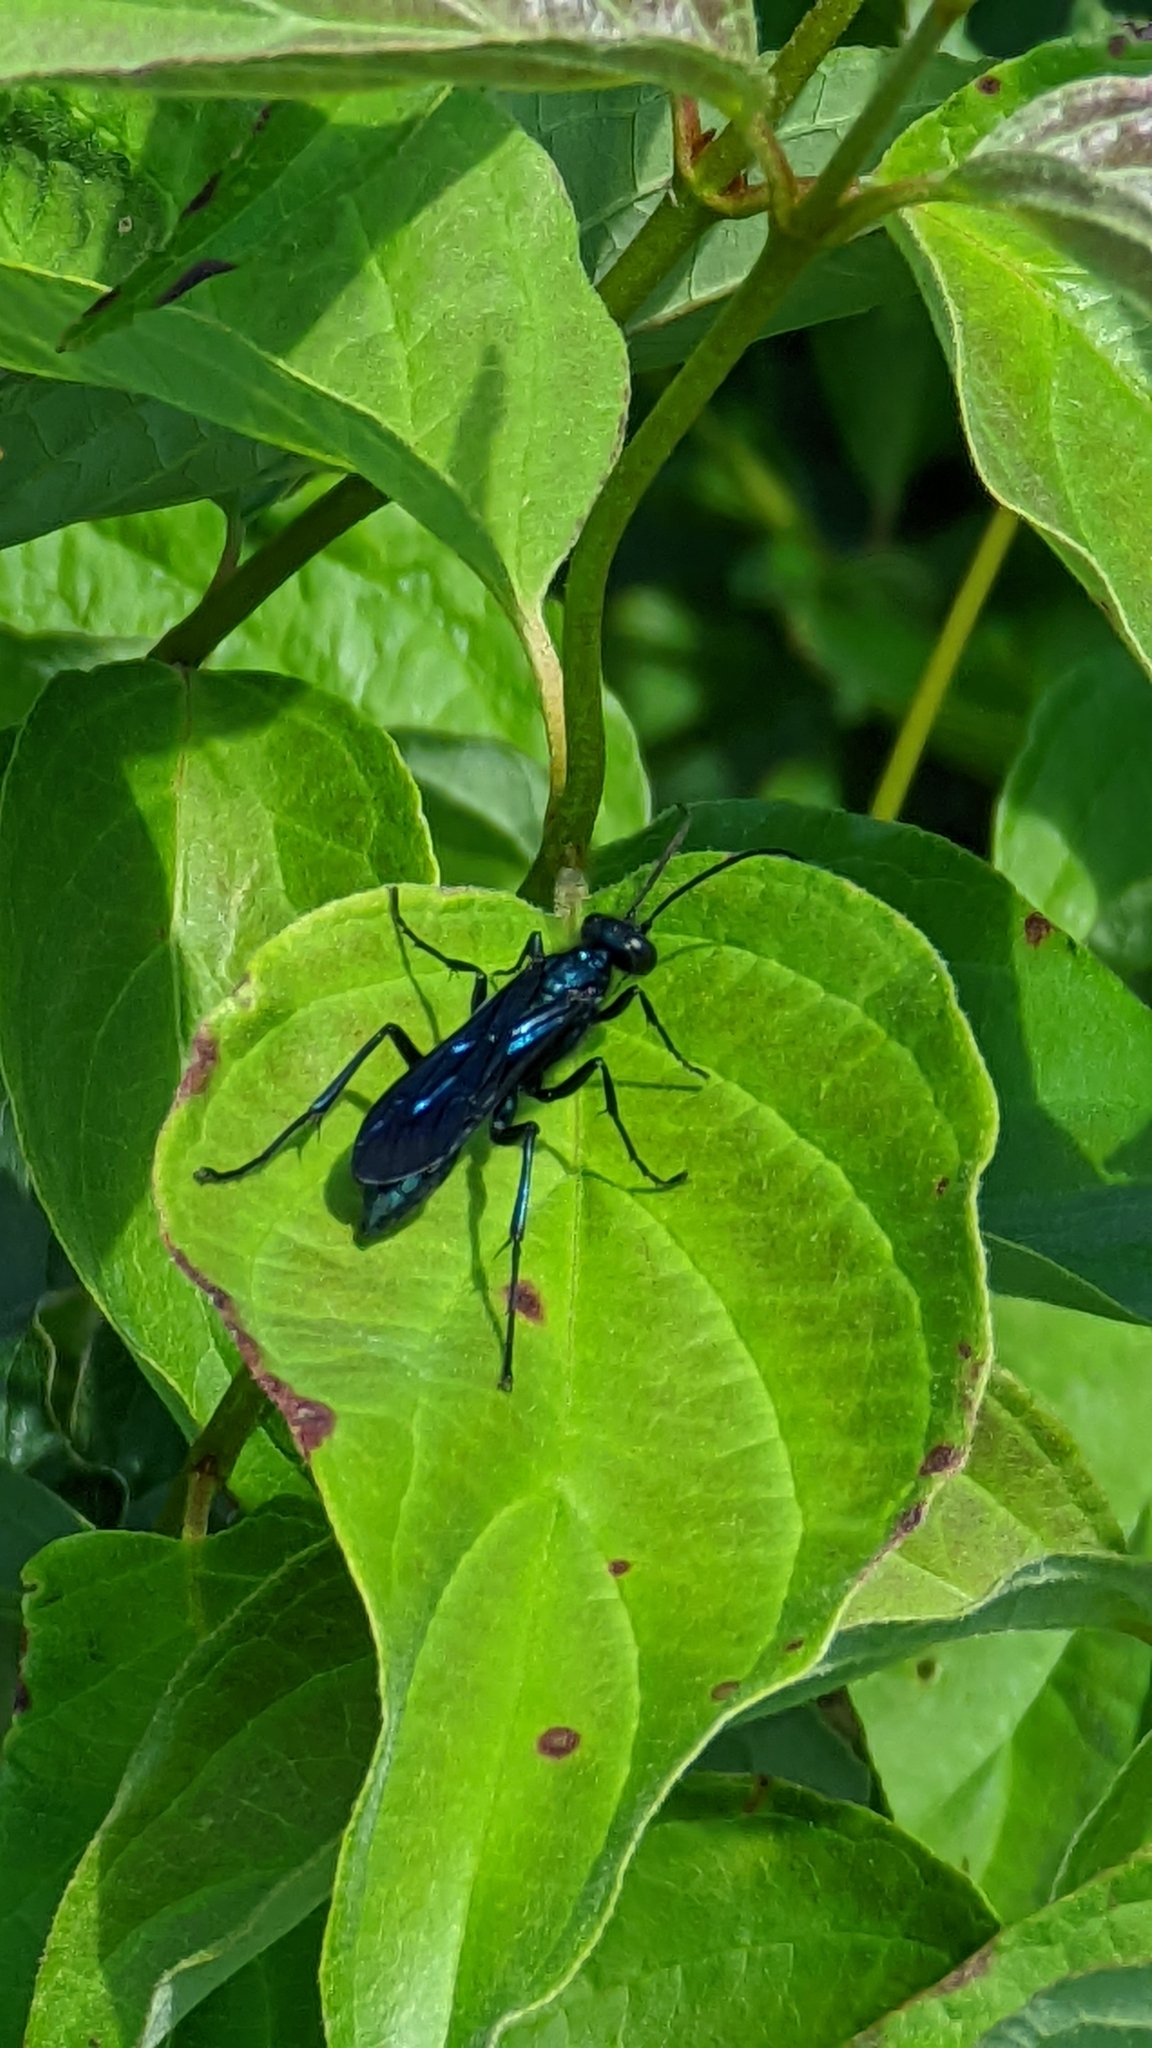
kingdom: Animalia
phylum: Arthropoda
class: Insecta
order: Hymenoptera
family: Sphecidae
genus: Chalybion
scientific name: Chalybion californicum
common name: Mud dauber
